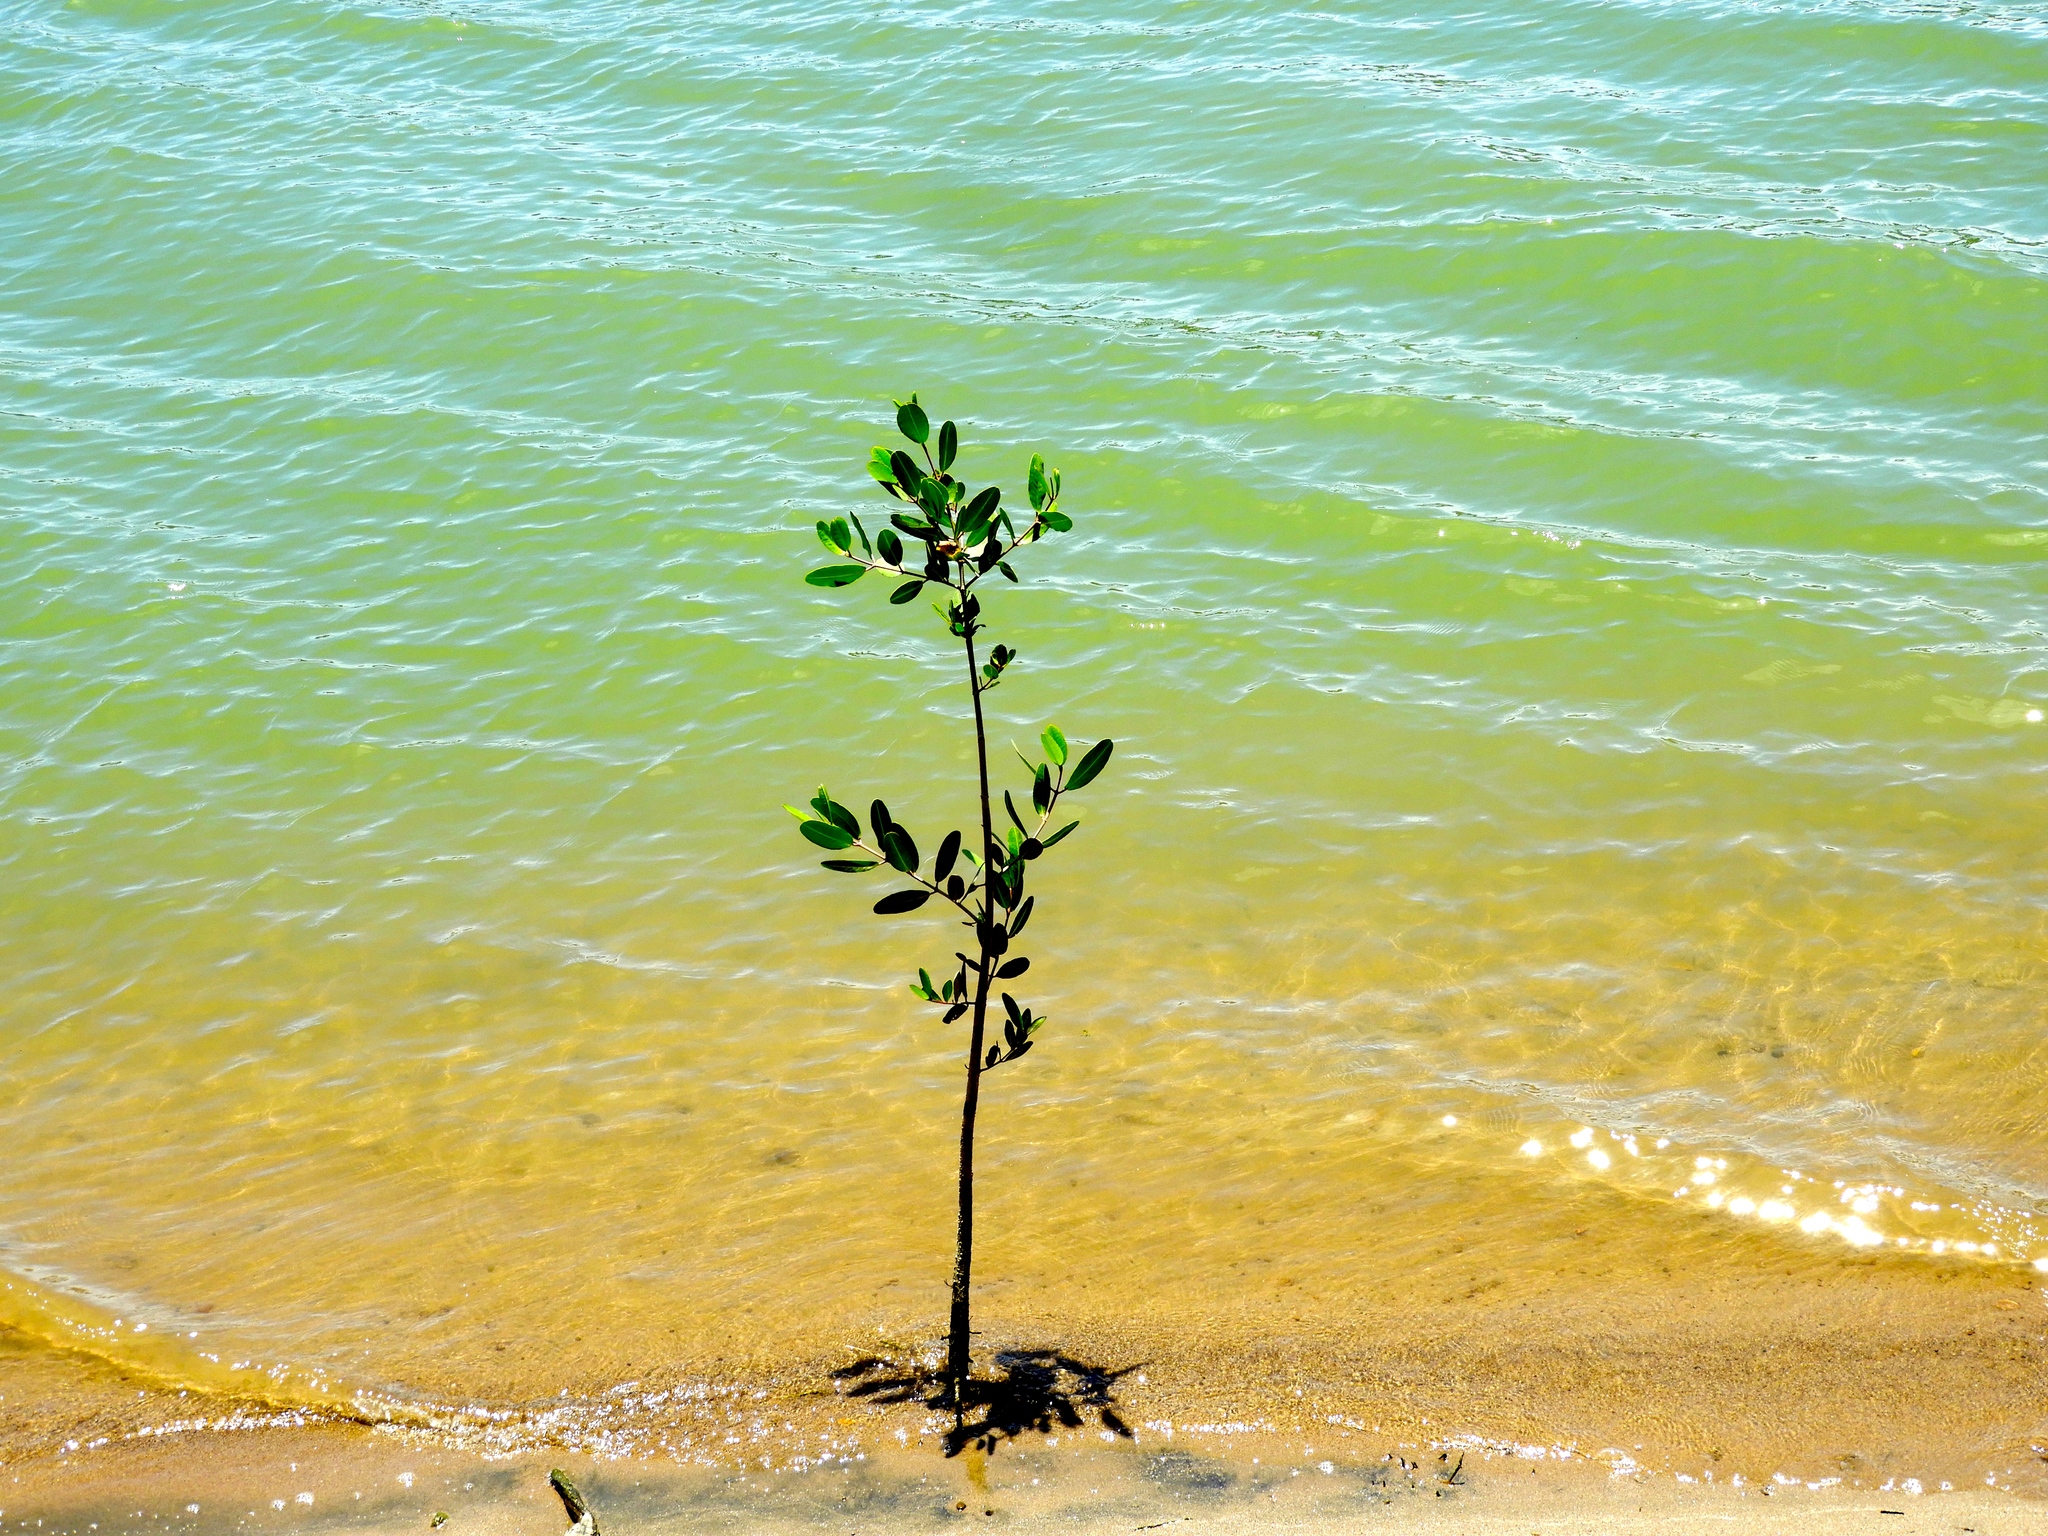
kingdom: Plantae
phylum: Tracheophyta
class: Magnoliopsida
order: Myrtales
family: Combretaceae
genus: Conocarpus
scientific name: Conocarpus erectus
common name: Button mangrove
